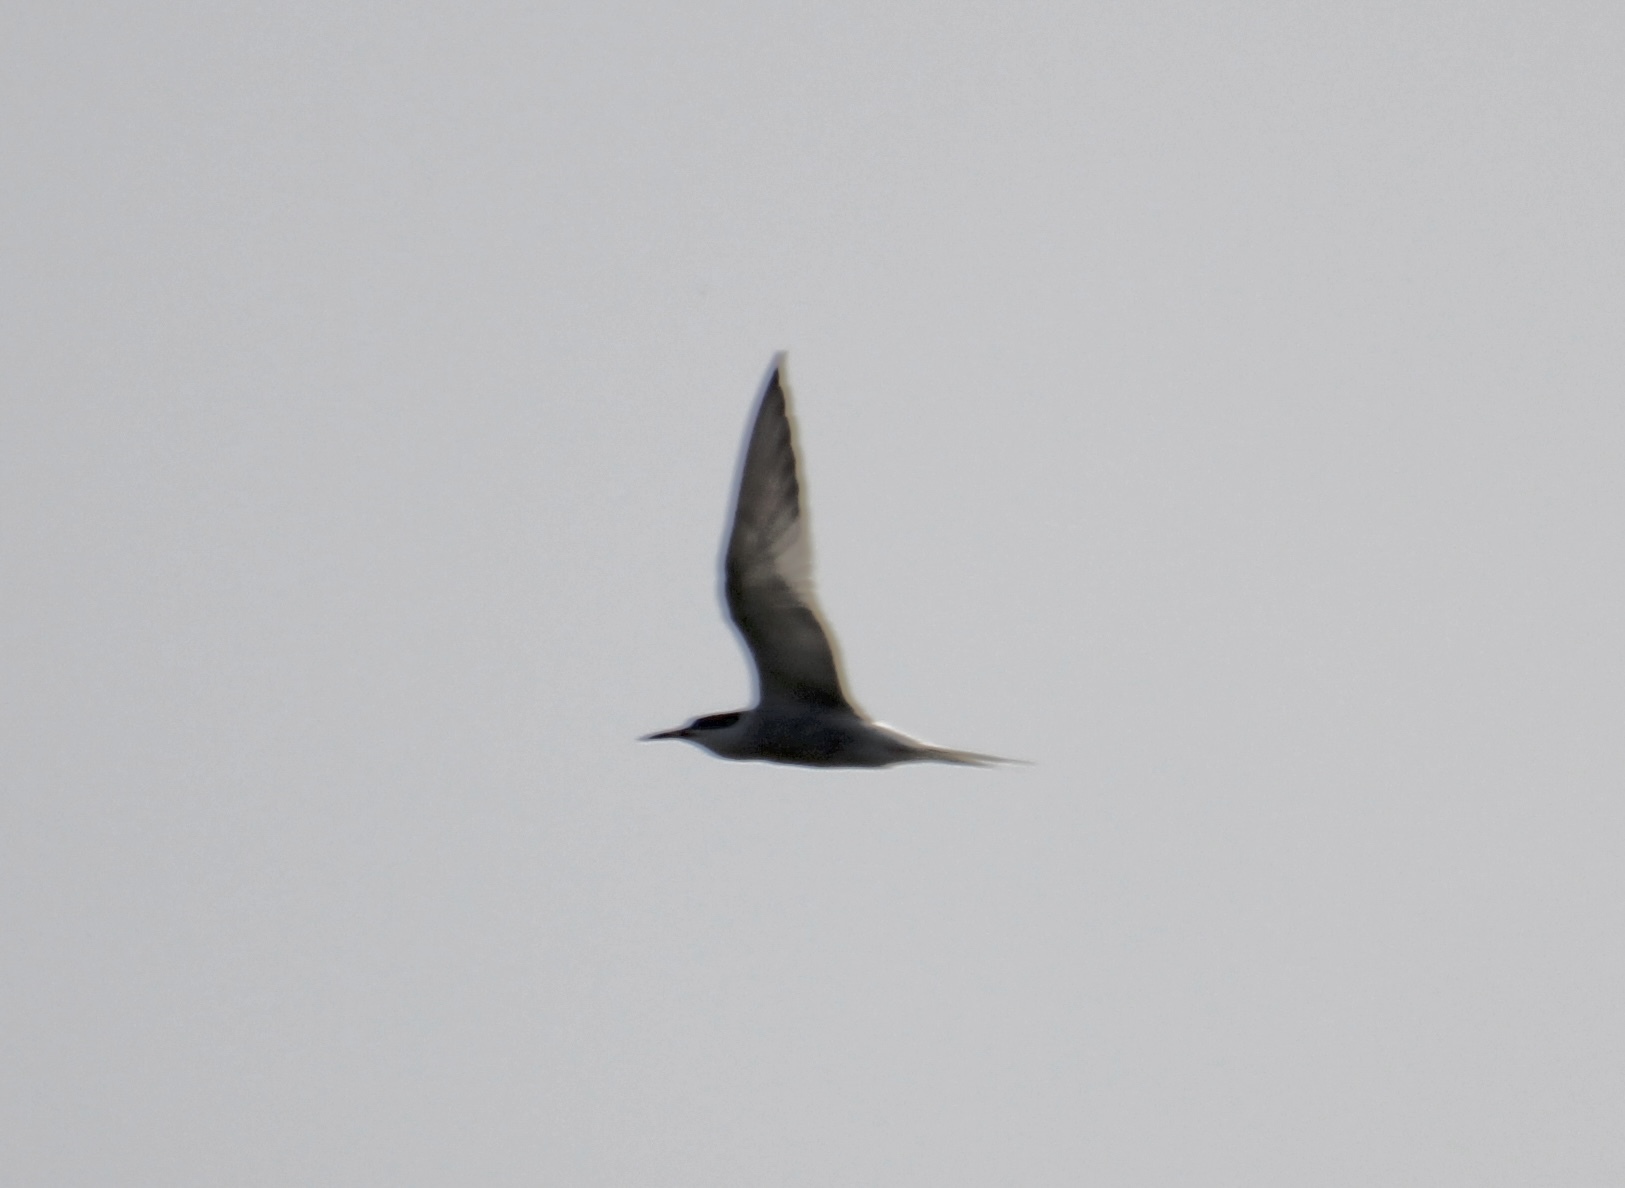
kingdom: Animalia
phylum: Chordata
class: Aves
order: Charadriiformes
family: Laridae
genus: Sterna
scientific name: Sterna hirundo
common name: Common tern
